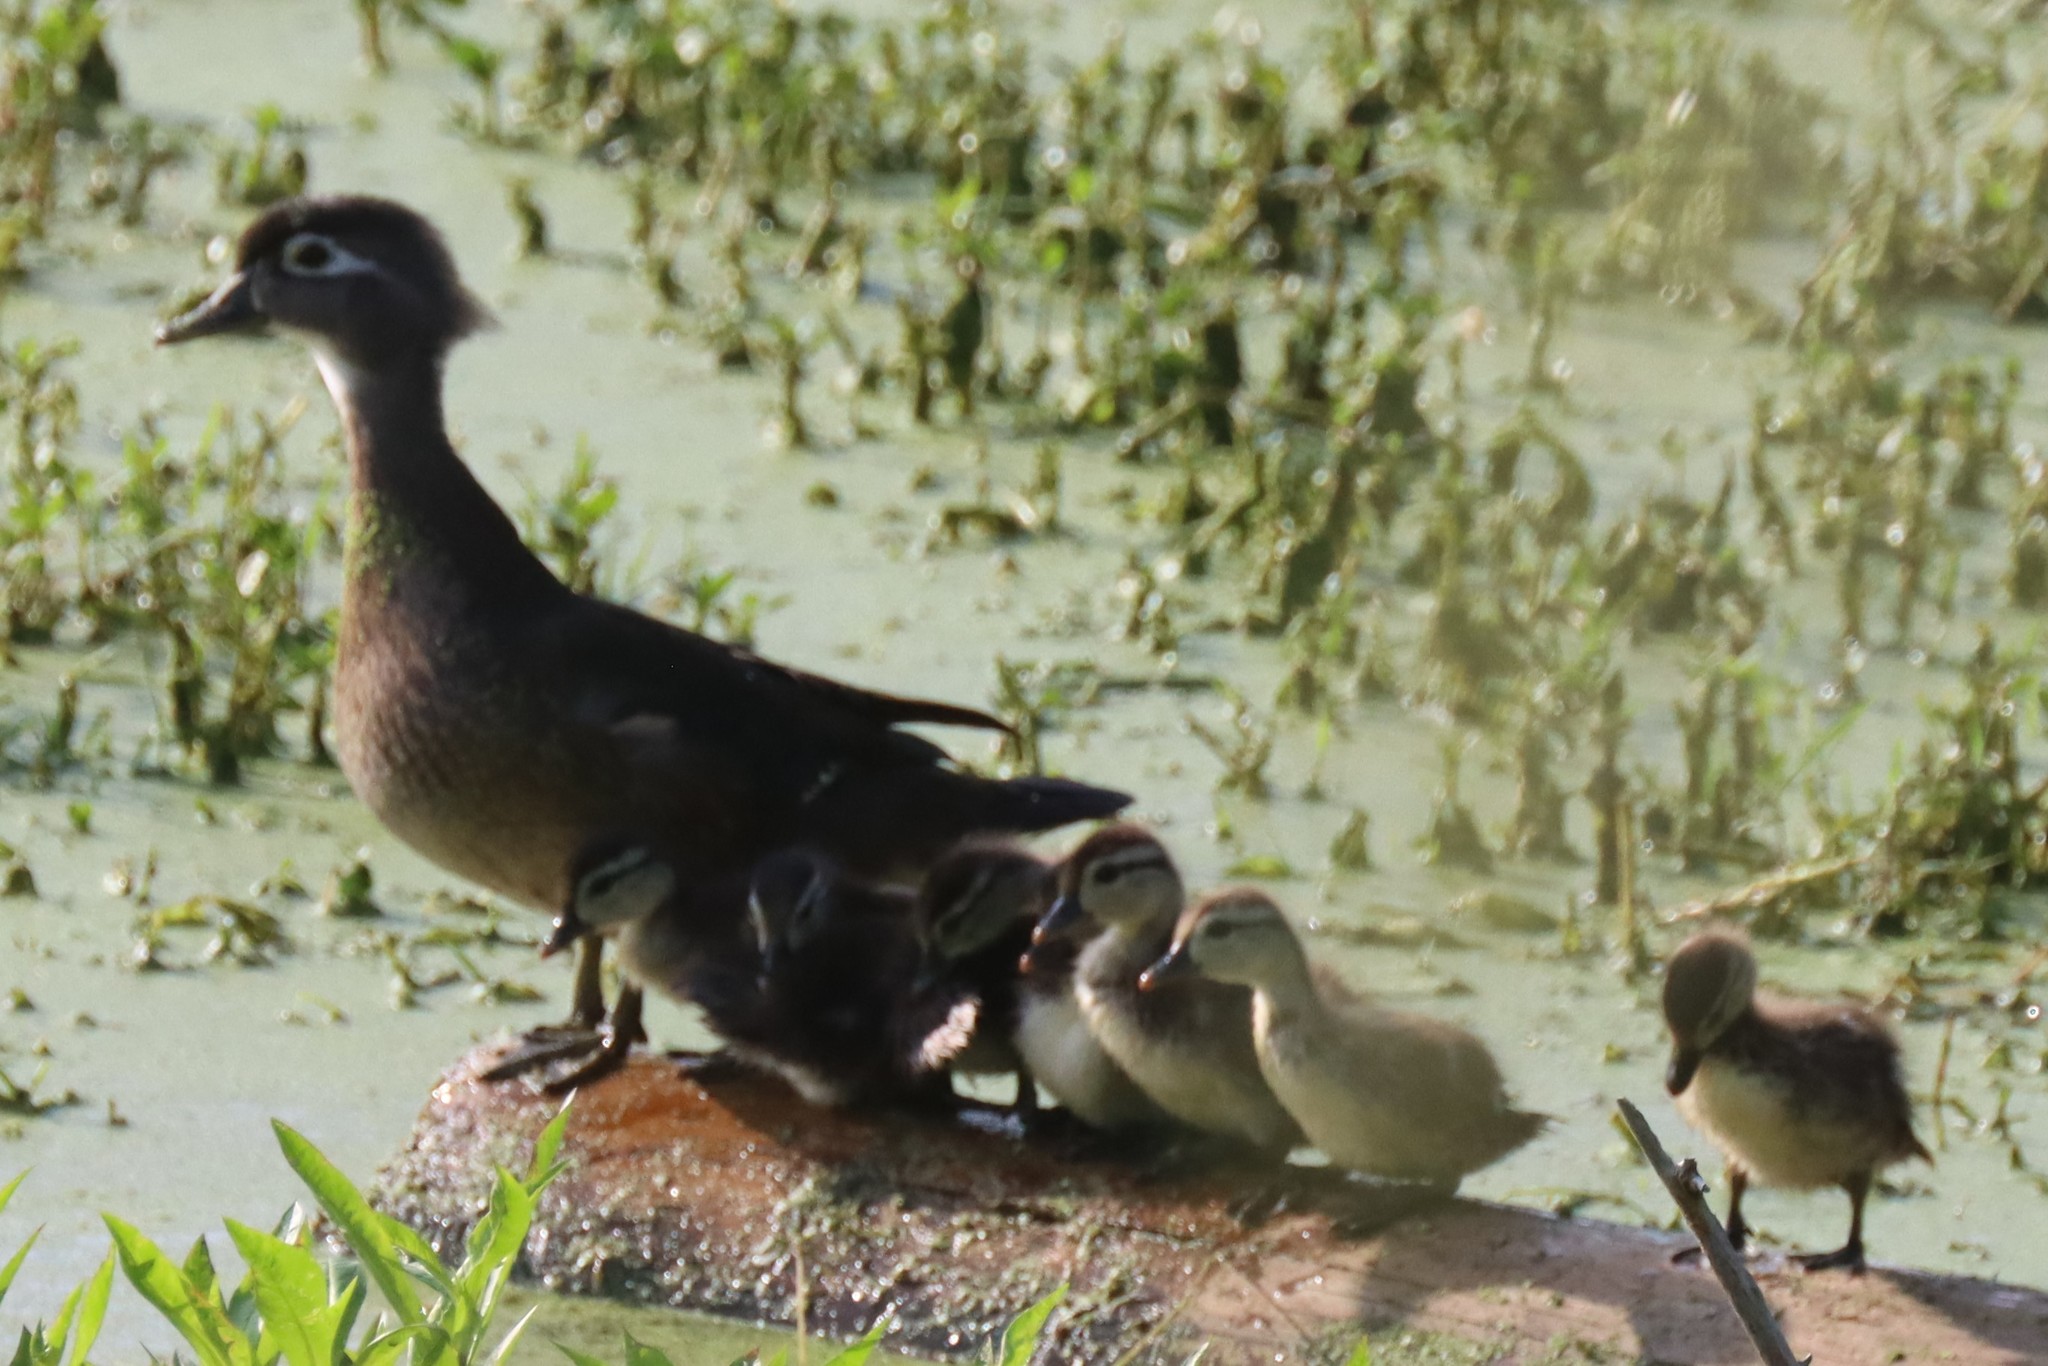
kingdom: Animalia
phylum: Chordata
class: Aves
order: Anseriformes
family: Anatidae
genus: Aix
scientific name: Aix sponsa
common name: Wood duck
